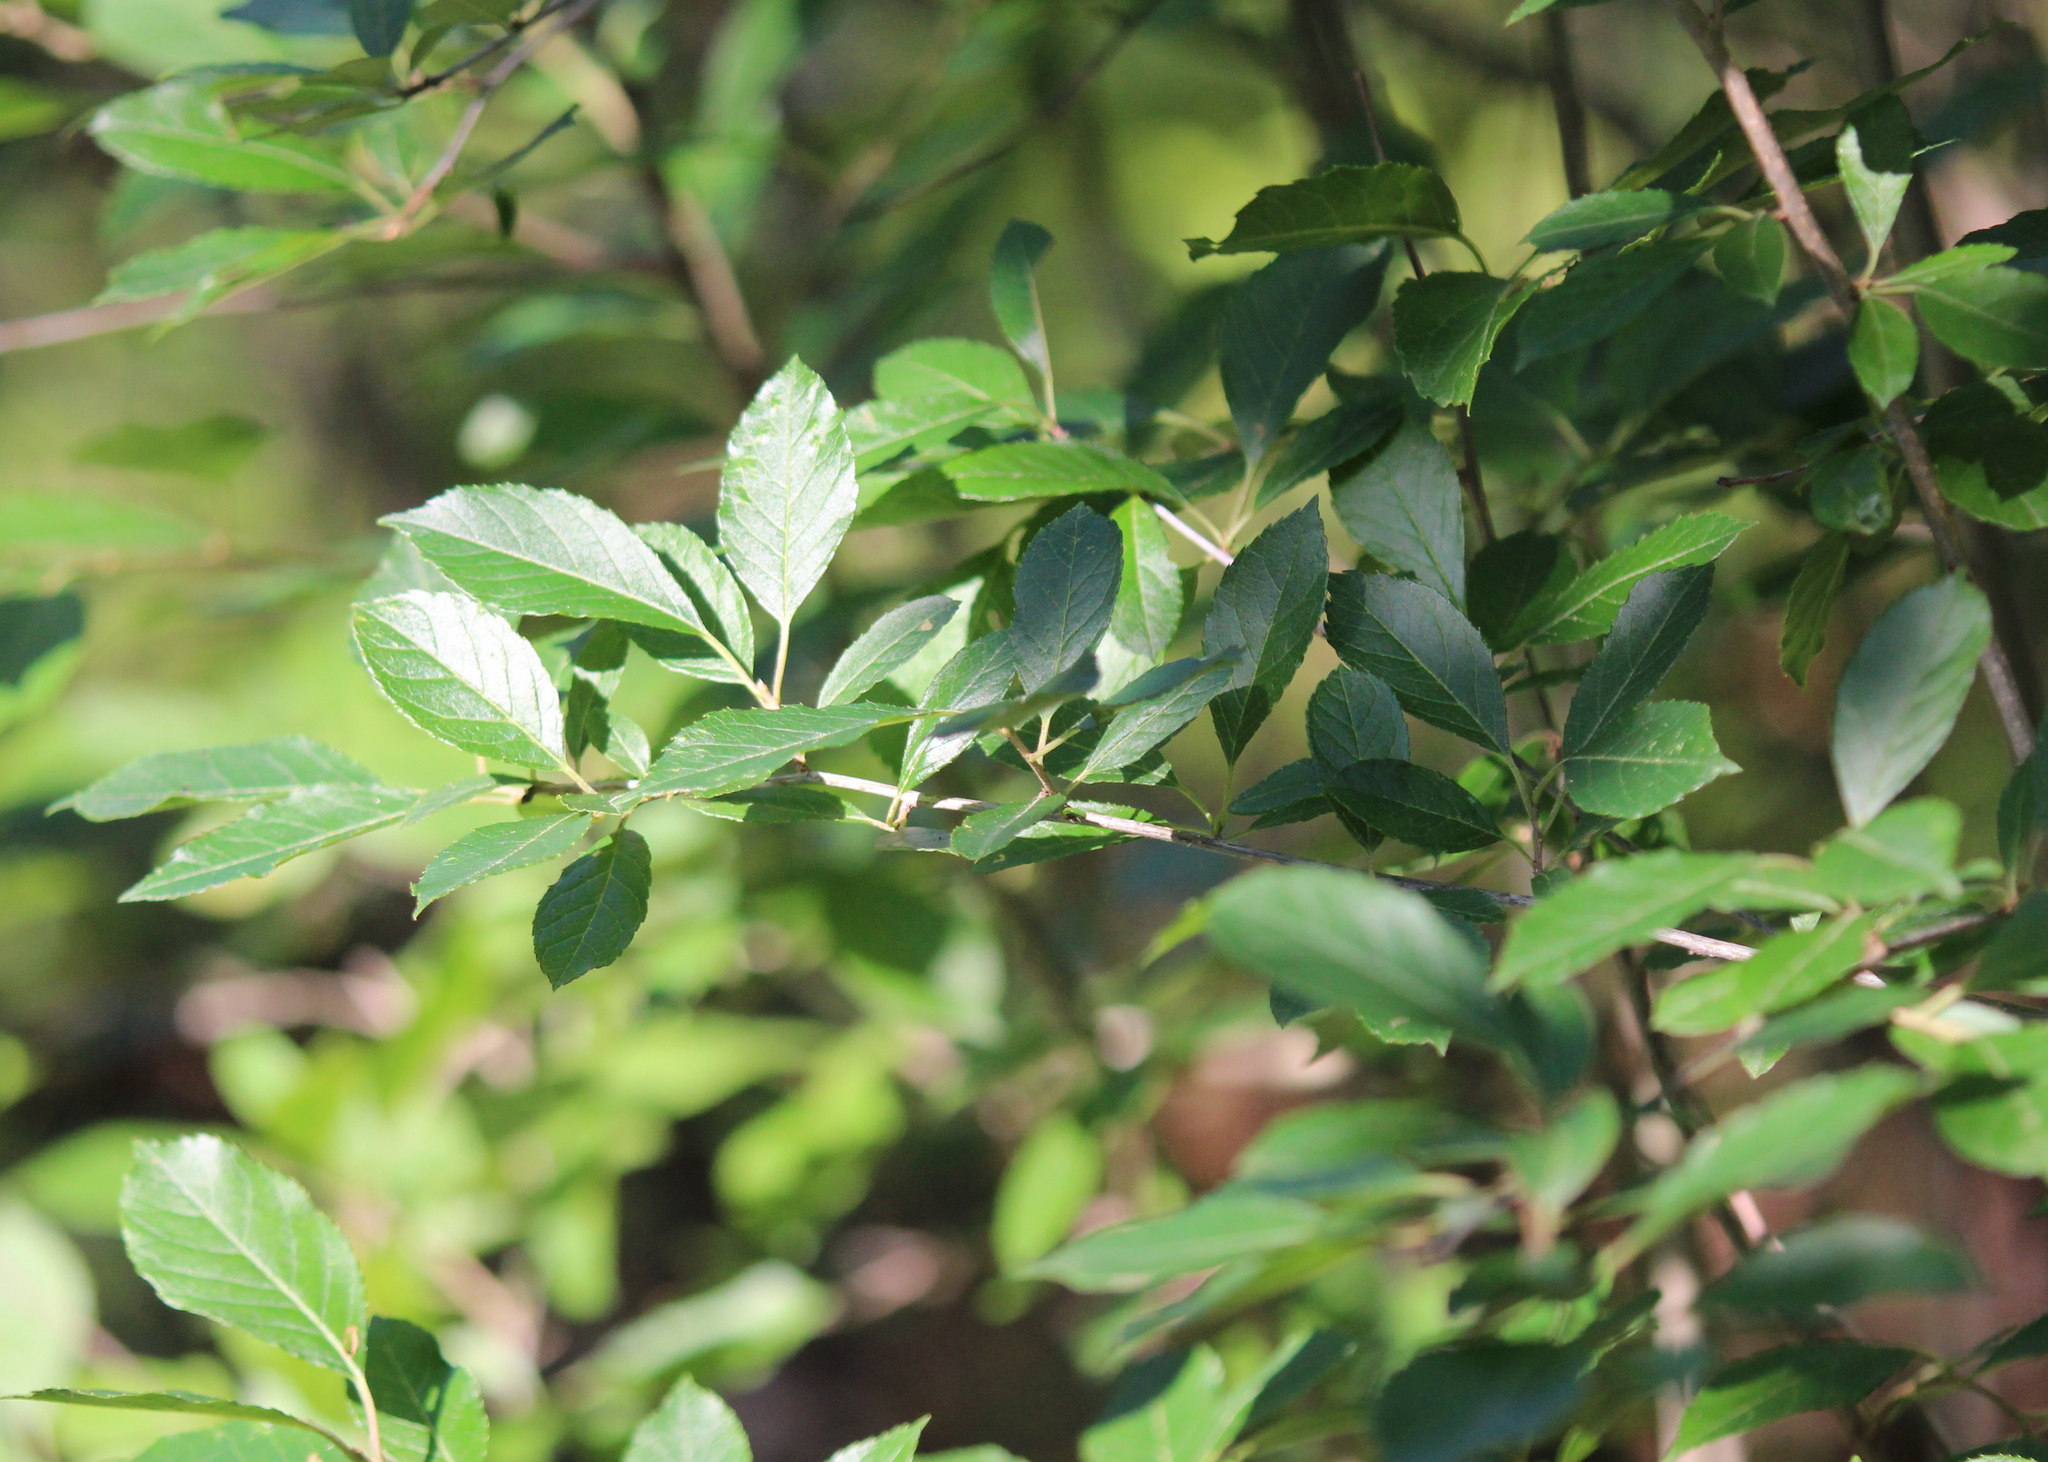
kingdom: Plantae
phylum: Tracheophyta
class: Magnoliopsida
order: Aquifoliales
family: Aquifoliaceae
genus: Ilex
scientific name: Ilex verticillata
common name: Virginia winterberry
